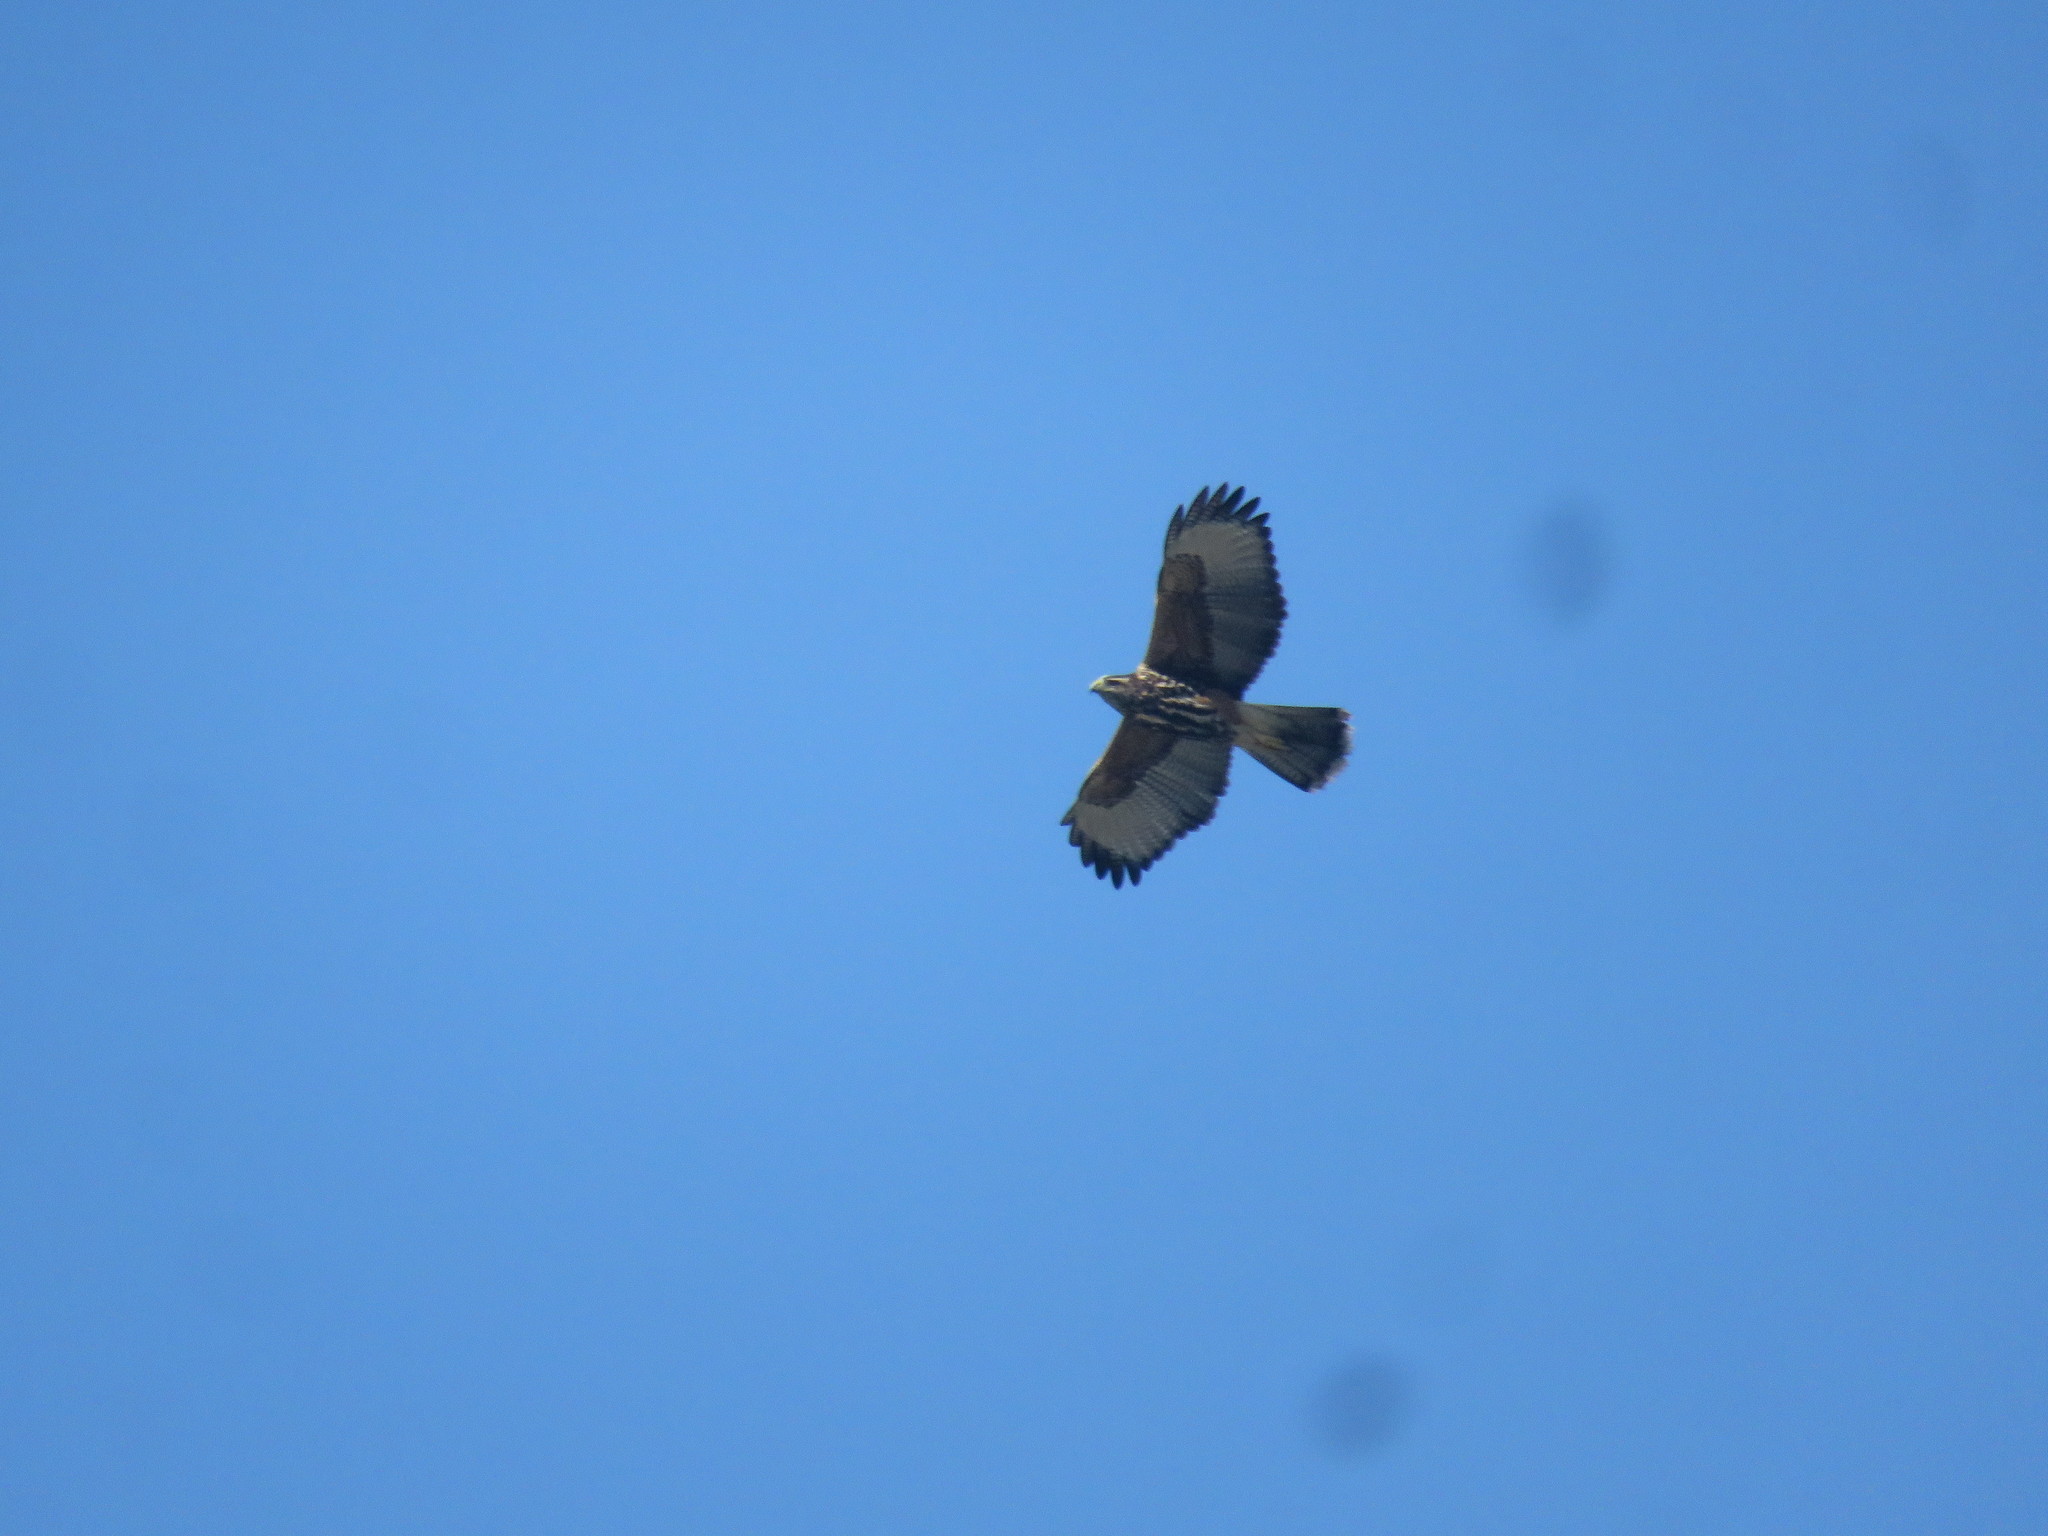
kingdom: Animalia
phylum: Chordata
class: Aves
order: Accipitriformes
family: Accipitridae
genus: Parabuteo
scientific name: Parabuteo unicinctus
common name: Harris's hawk
